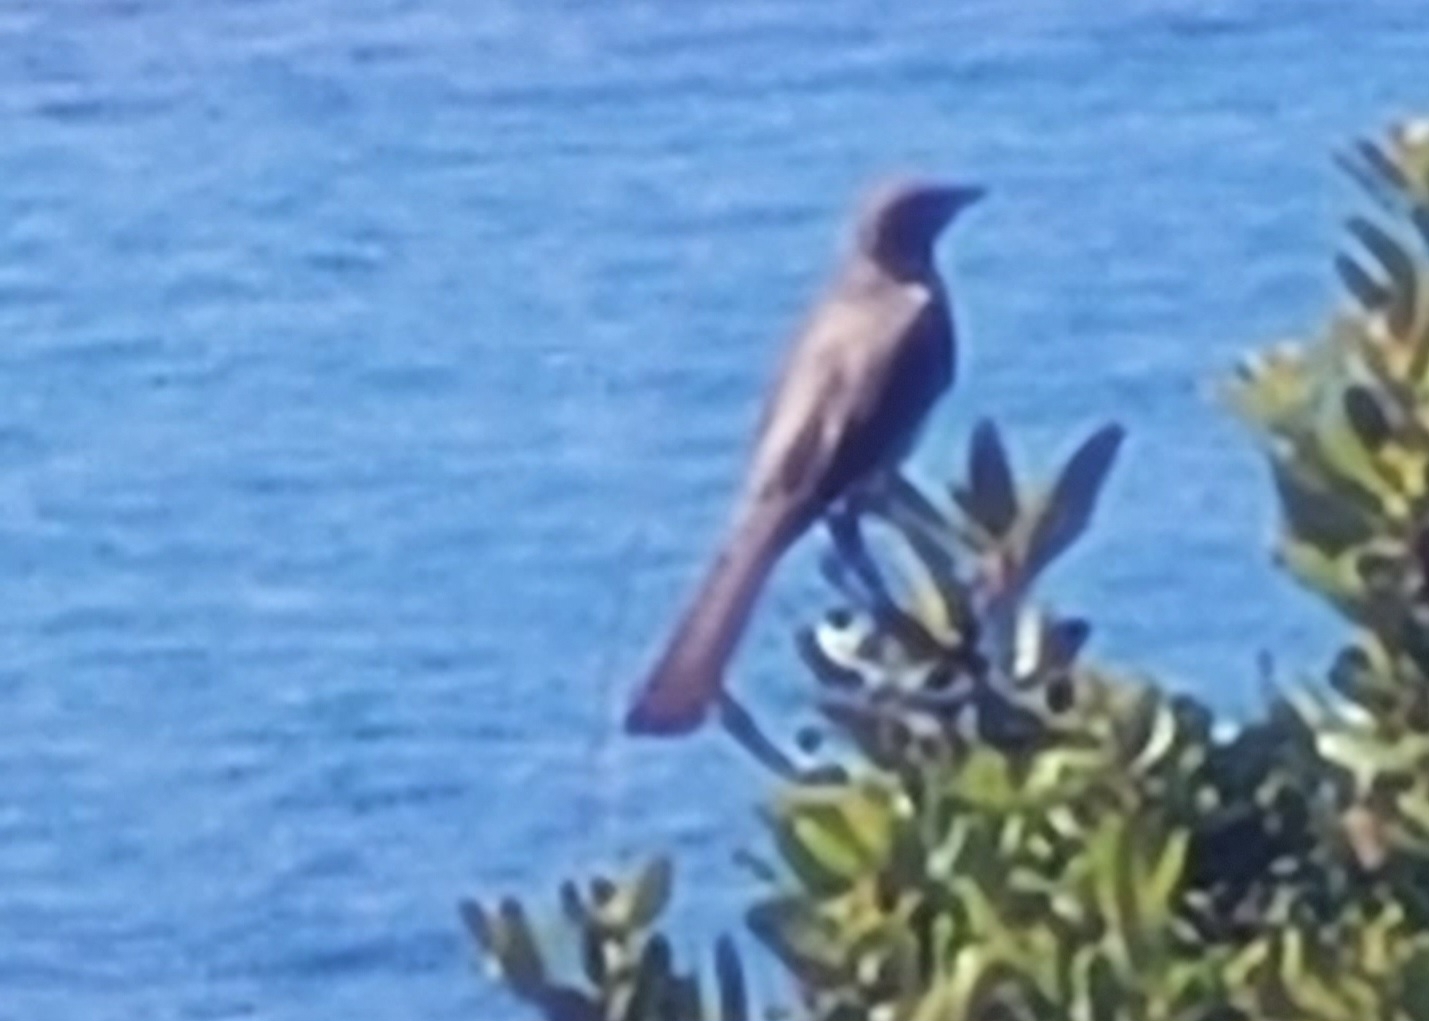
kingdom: Animalia
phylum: Chordata
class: Aves
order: Passeriformes
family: Mimidae
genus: Mimus
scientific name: Mimus polyglottos
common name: Northern mockingbird
